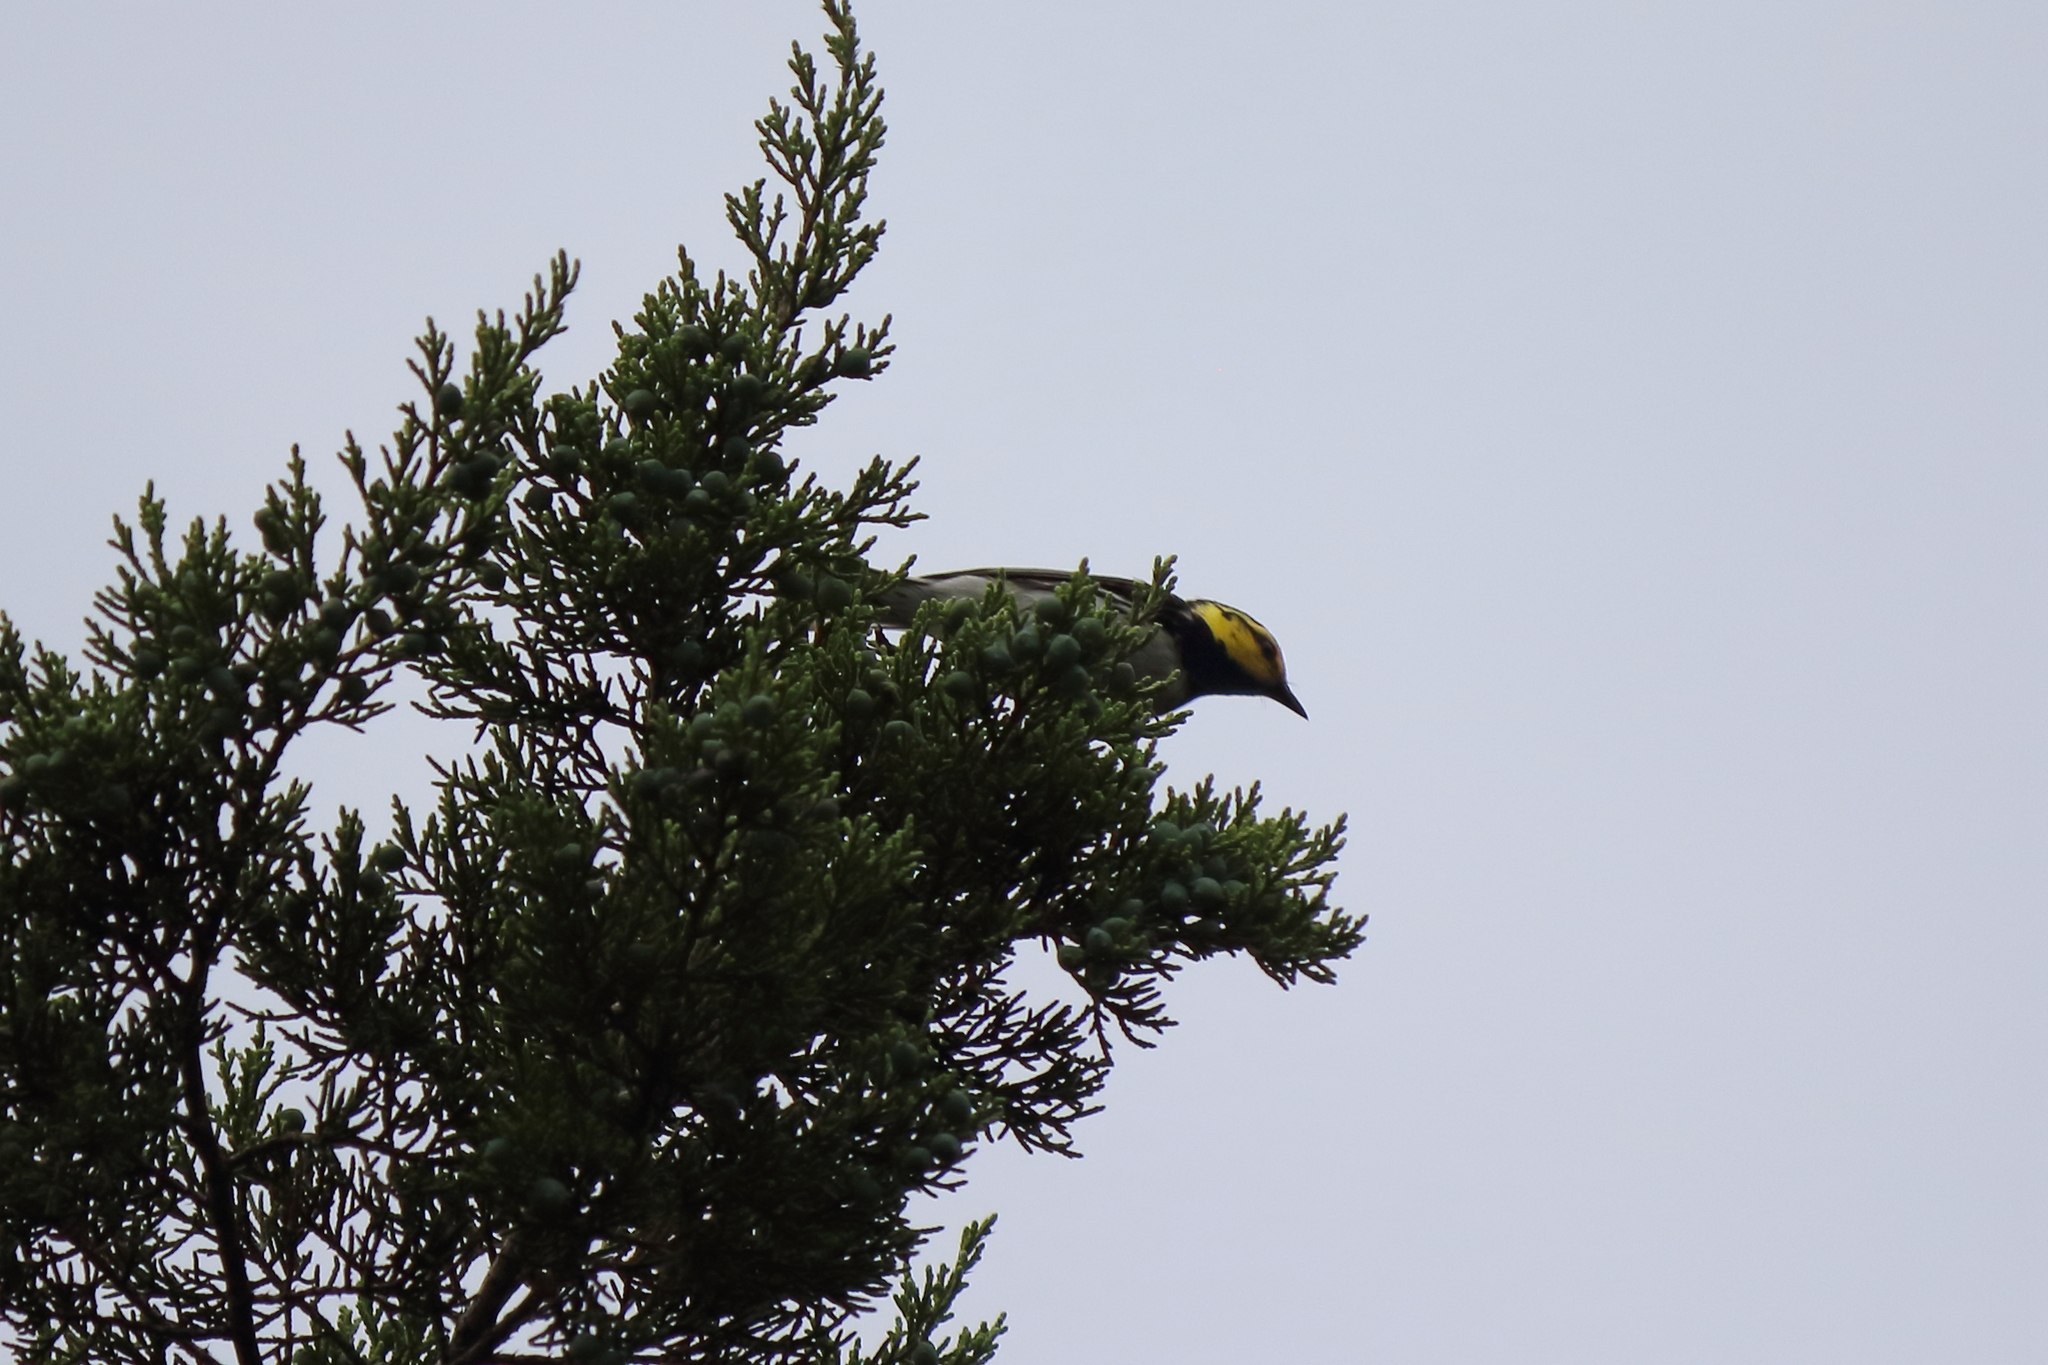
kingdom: Animalia
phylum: Chordata
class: Aves
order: Passeriformes
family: Parulidae
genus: Setophaga
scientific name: Setophaga chrysoparia
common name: Golden-cheeked warbler
